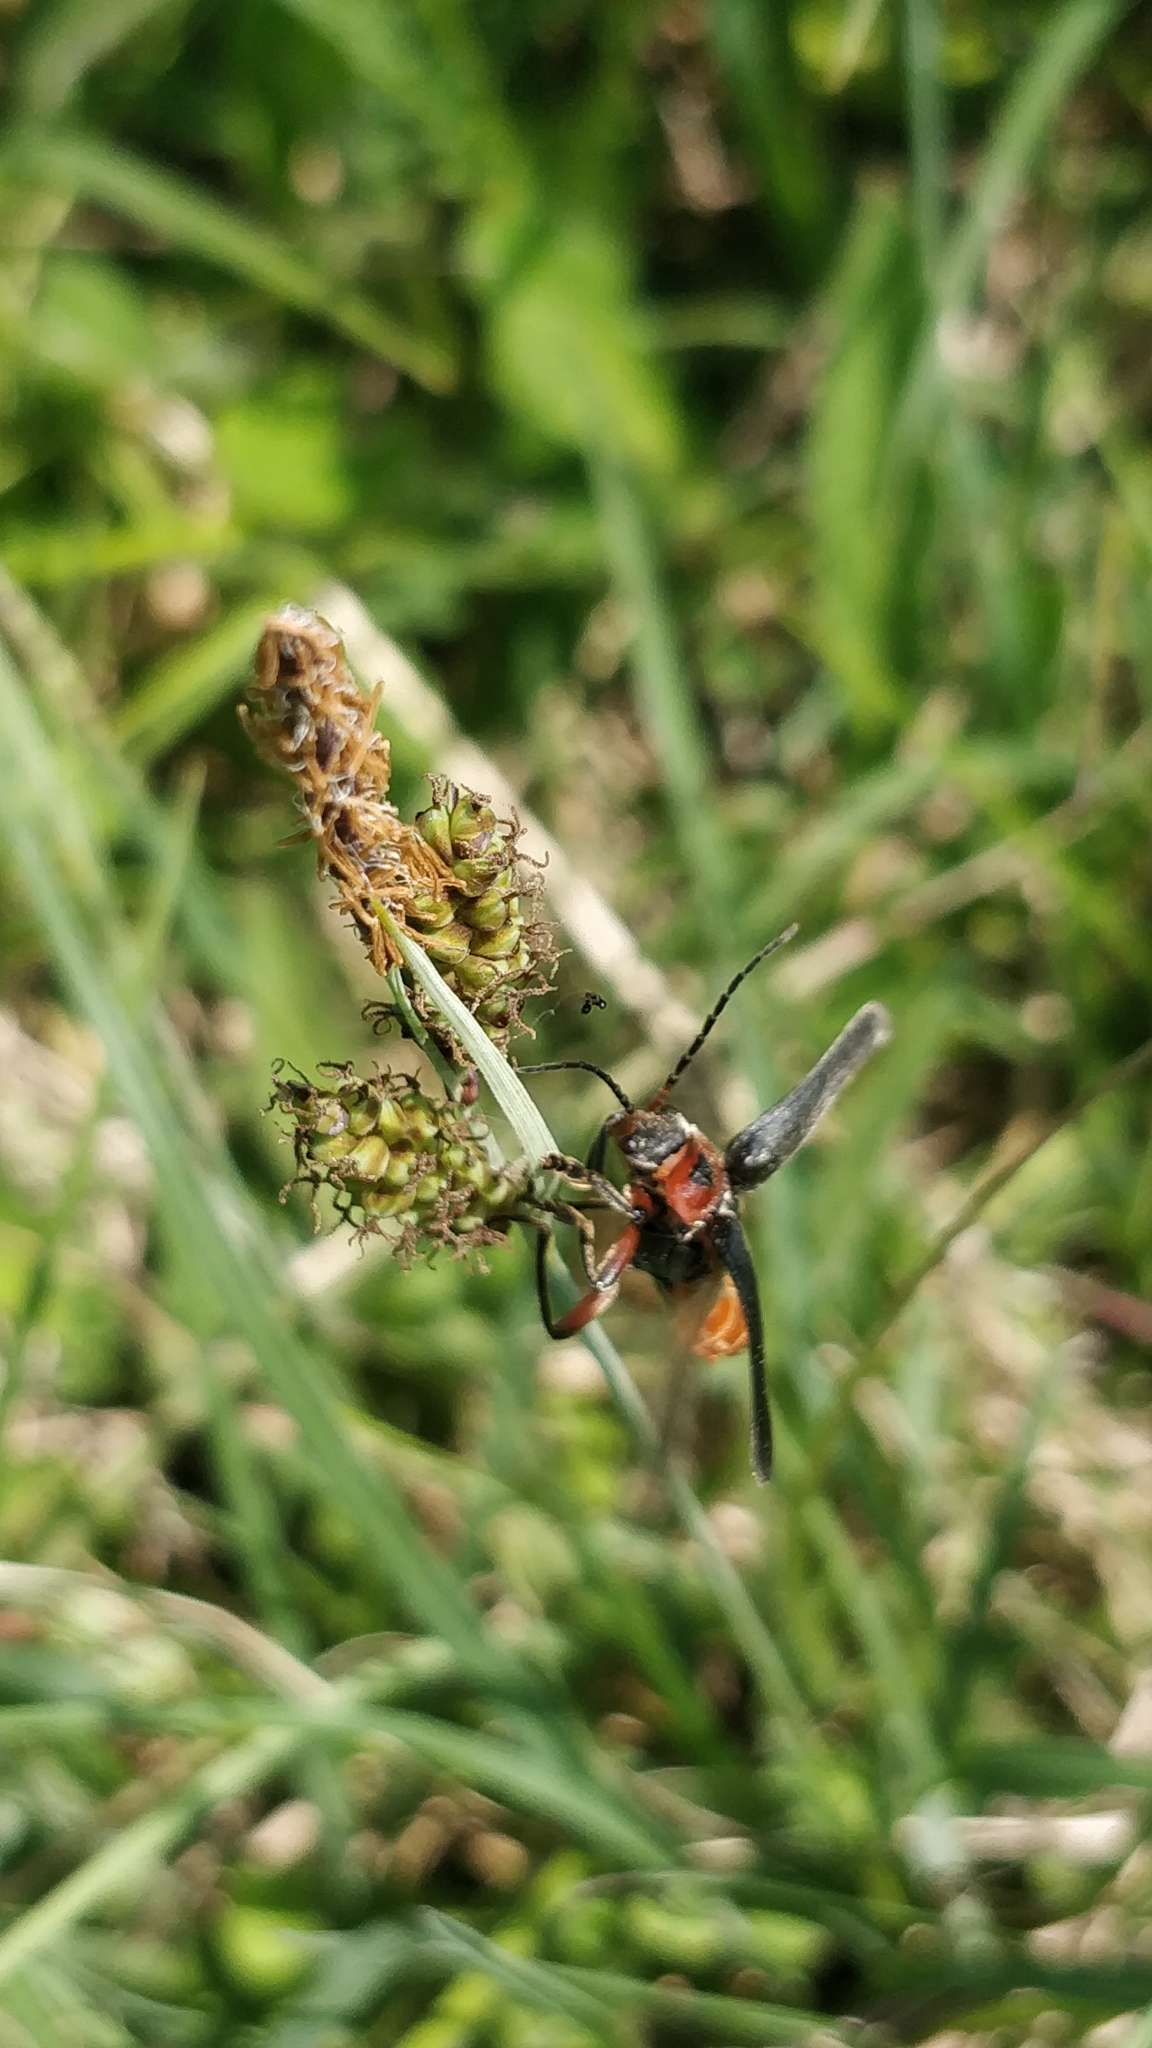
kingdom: Animalia
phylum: Arthropoda
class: Insecta
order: Coleoptera
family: Cantharidae
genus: Cantharis
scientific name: Cantharis rustica
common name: Soldier beetle
